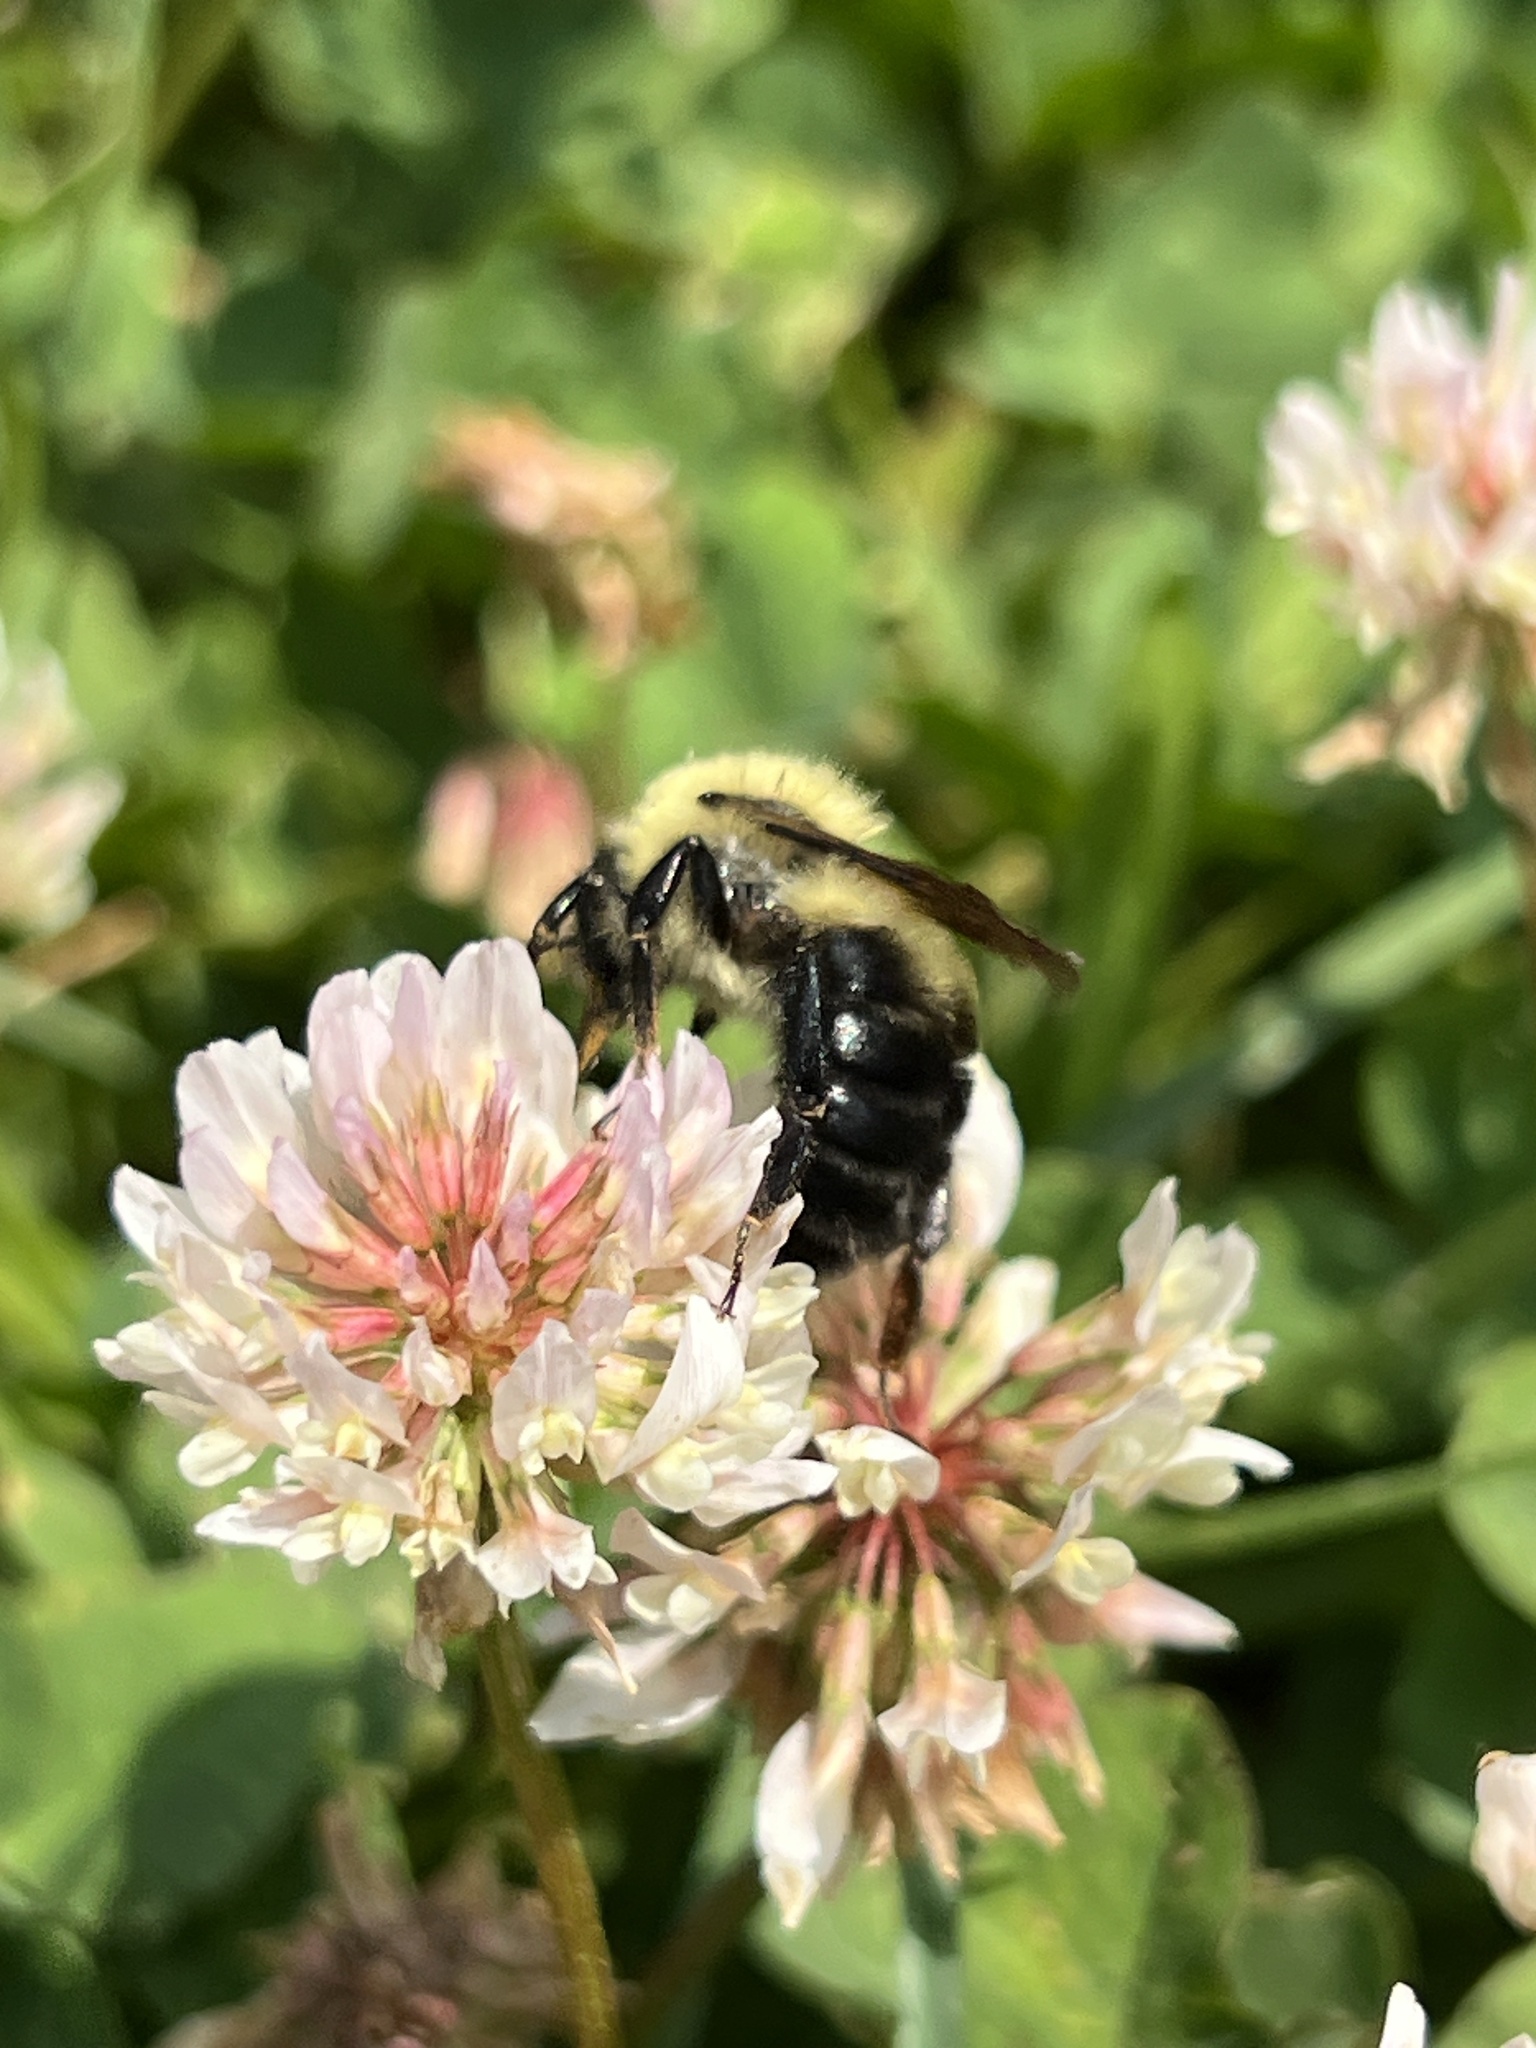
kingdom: Animalia
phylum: Arthropoda
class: Insecta
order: Hymenoptera
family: Apidae
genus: Bombus
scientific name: Bombus bimaculatus
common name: Two-spotted bumble bee
